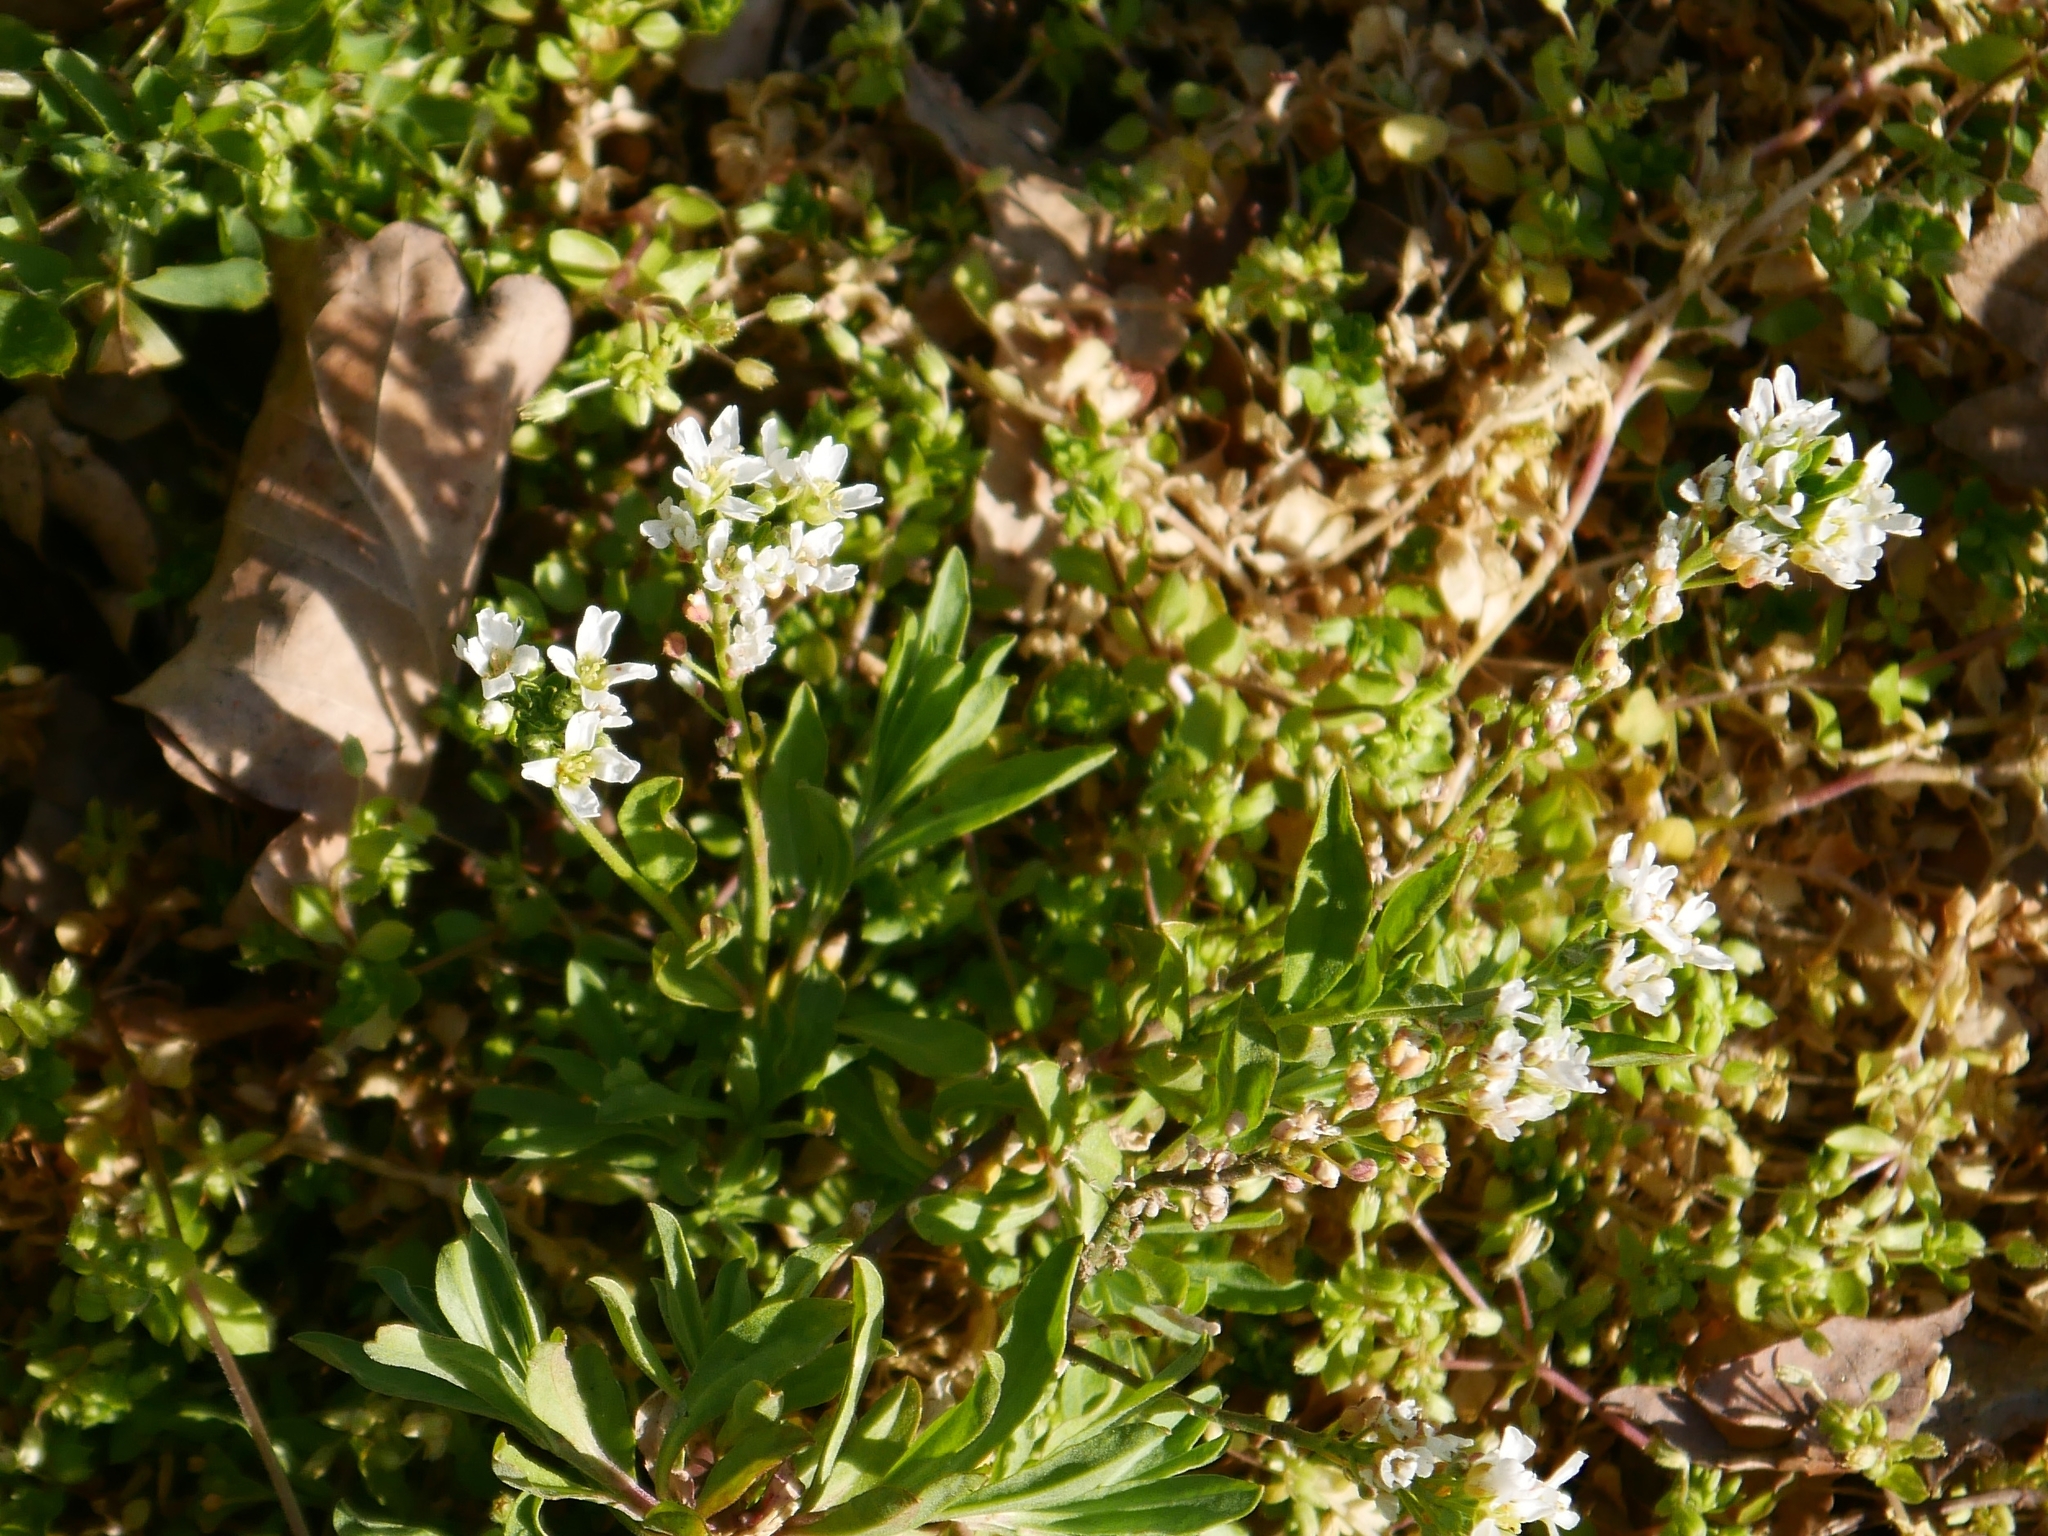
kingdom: Plantae
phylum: Tracheophyta
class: Magnoliopsida
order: Brassicales
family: Brassicaceae
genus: Berteroa
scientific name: Berteroa incana
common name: Hoary alison
